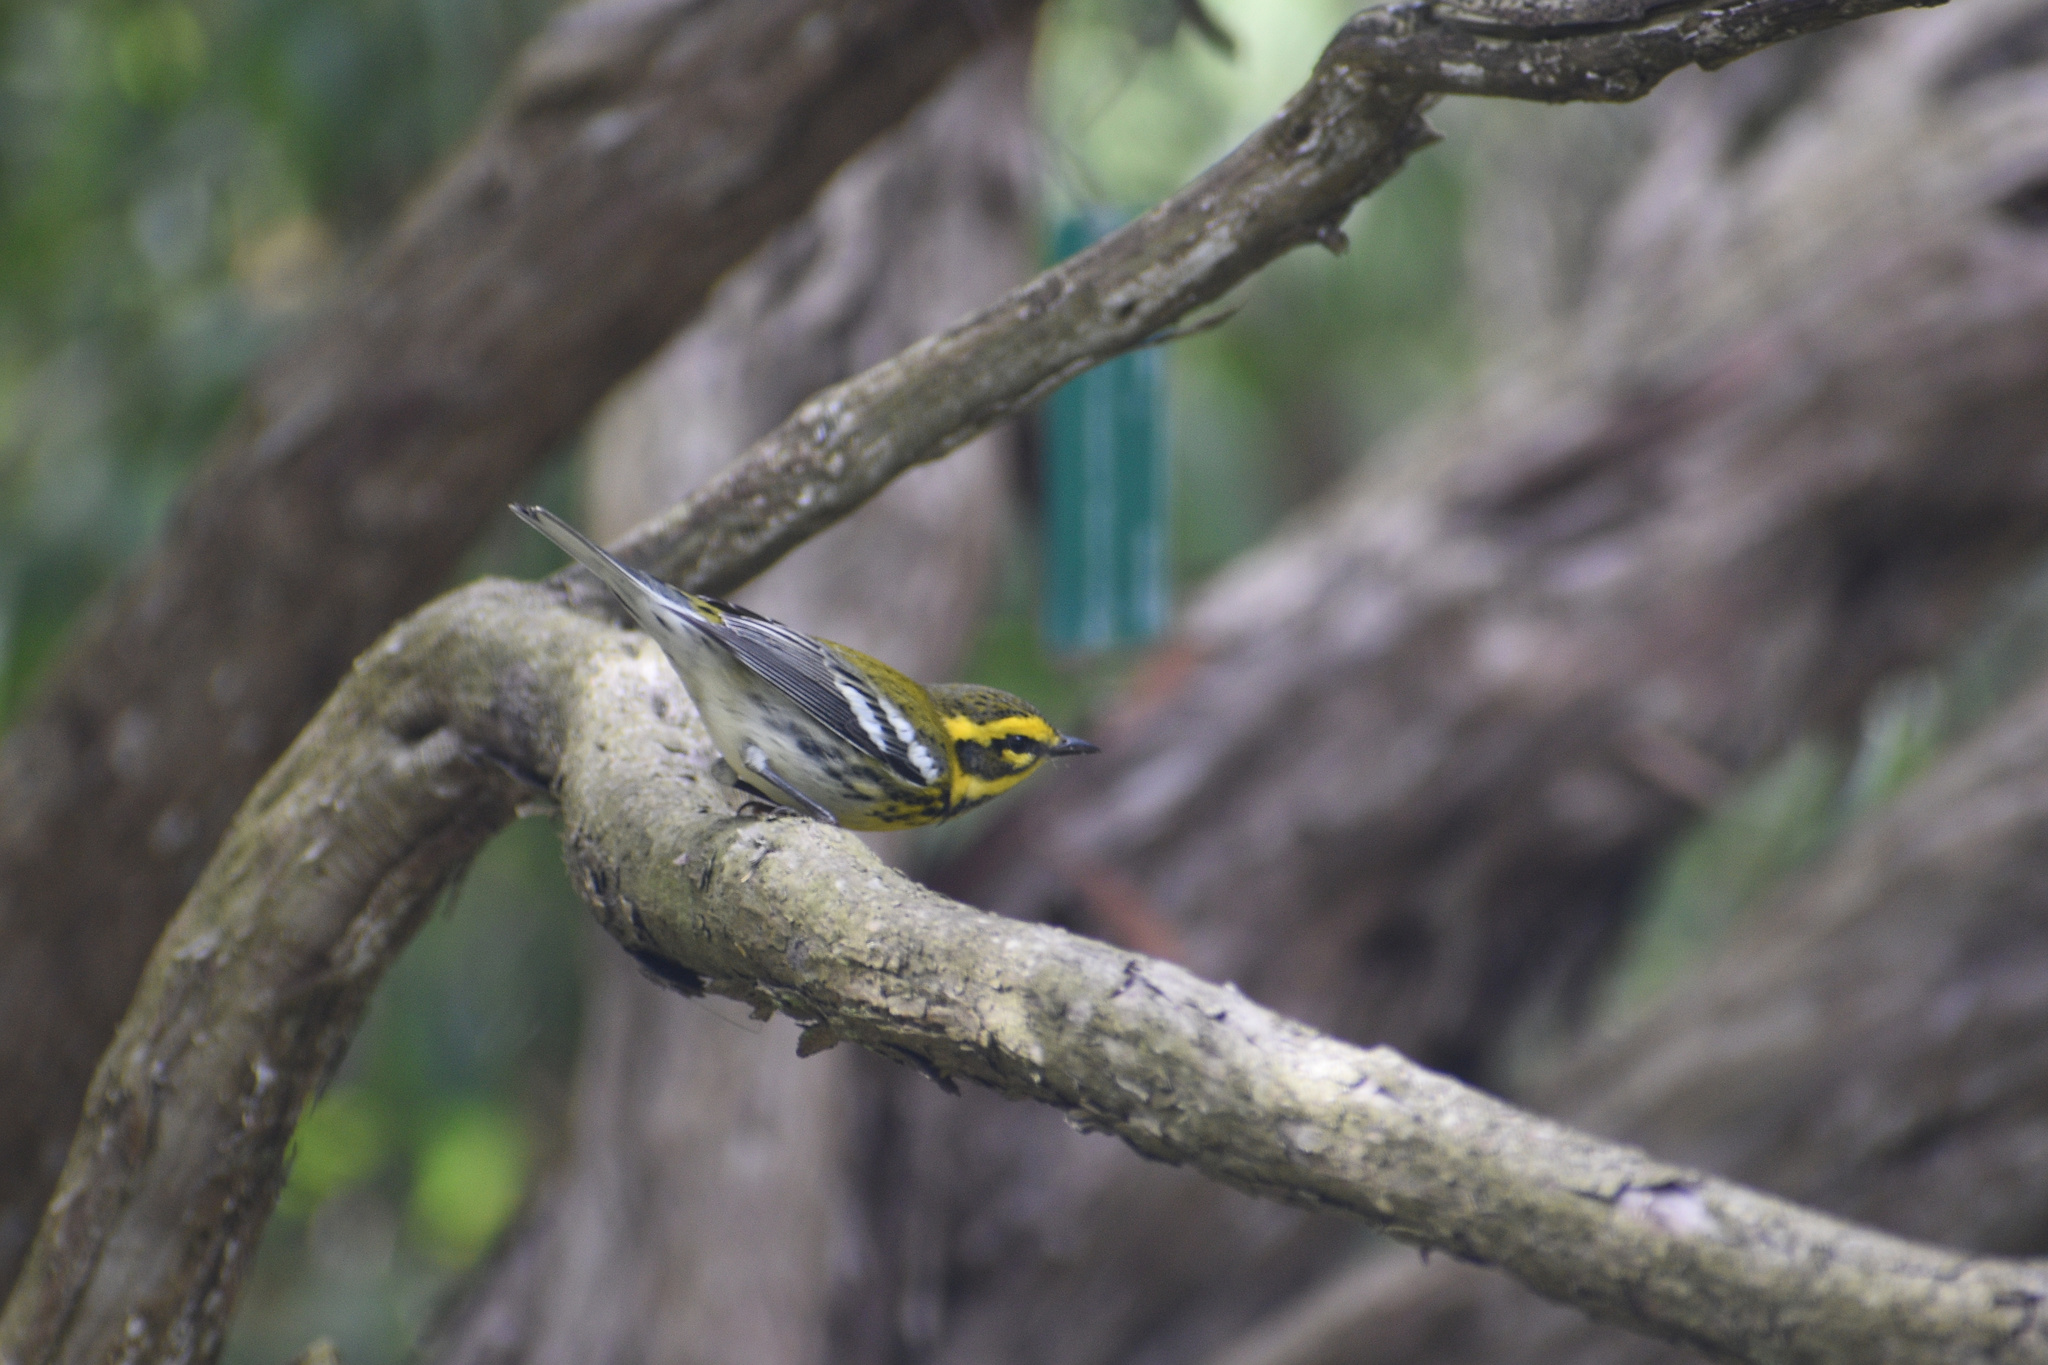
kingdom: Animalia
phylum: Chordata
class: Aves
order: Passeriformes
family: Parulidae
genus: Setophaga
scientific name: Setophaga townsendi
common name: Townsend's warbler
